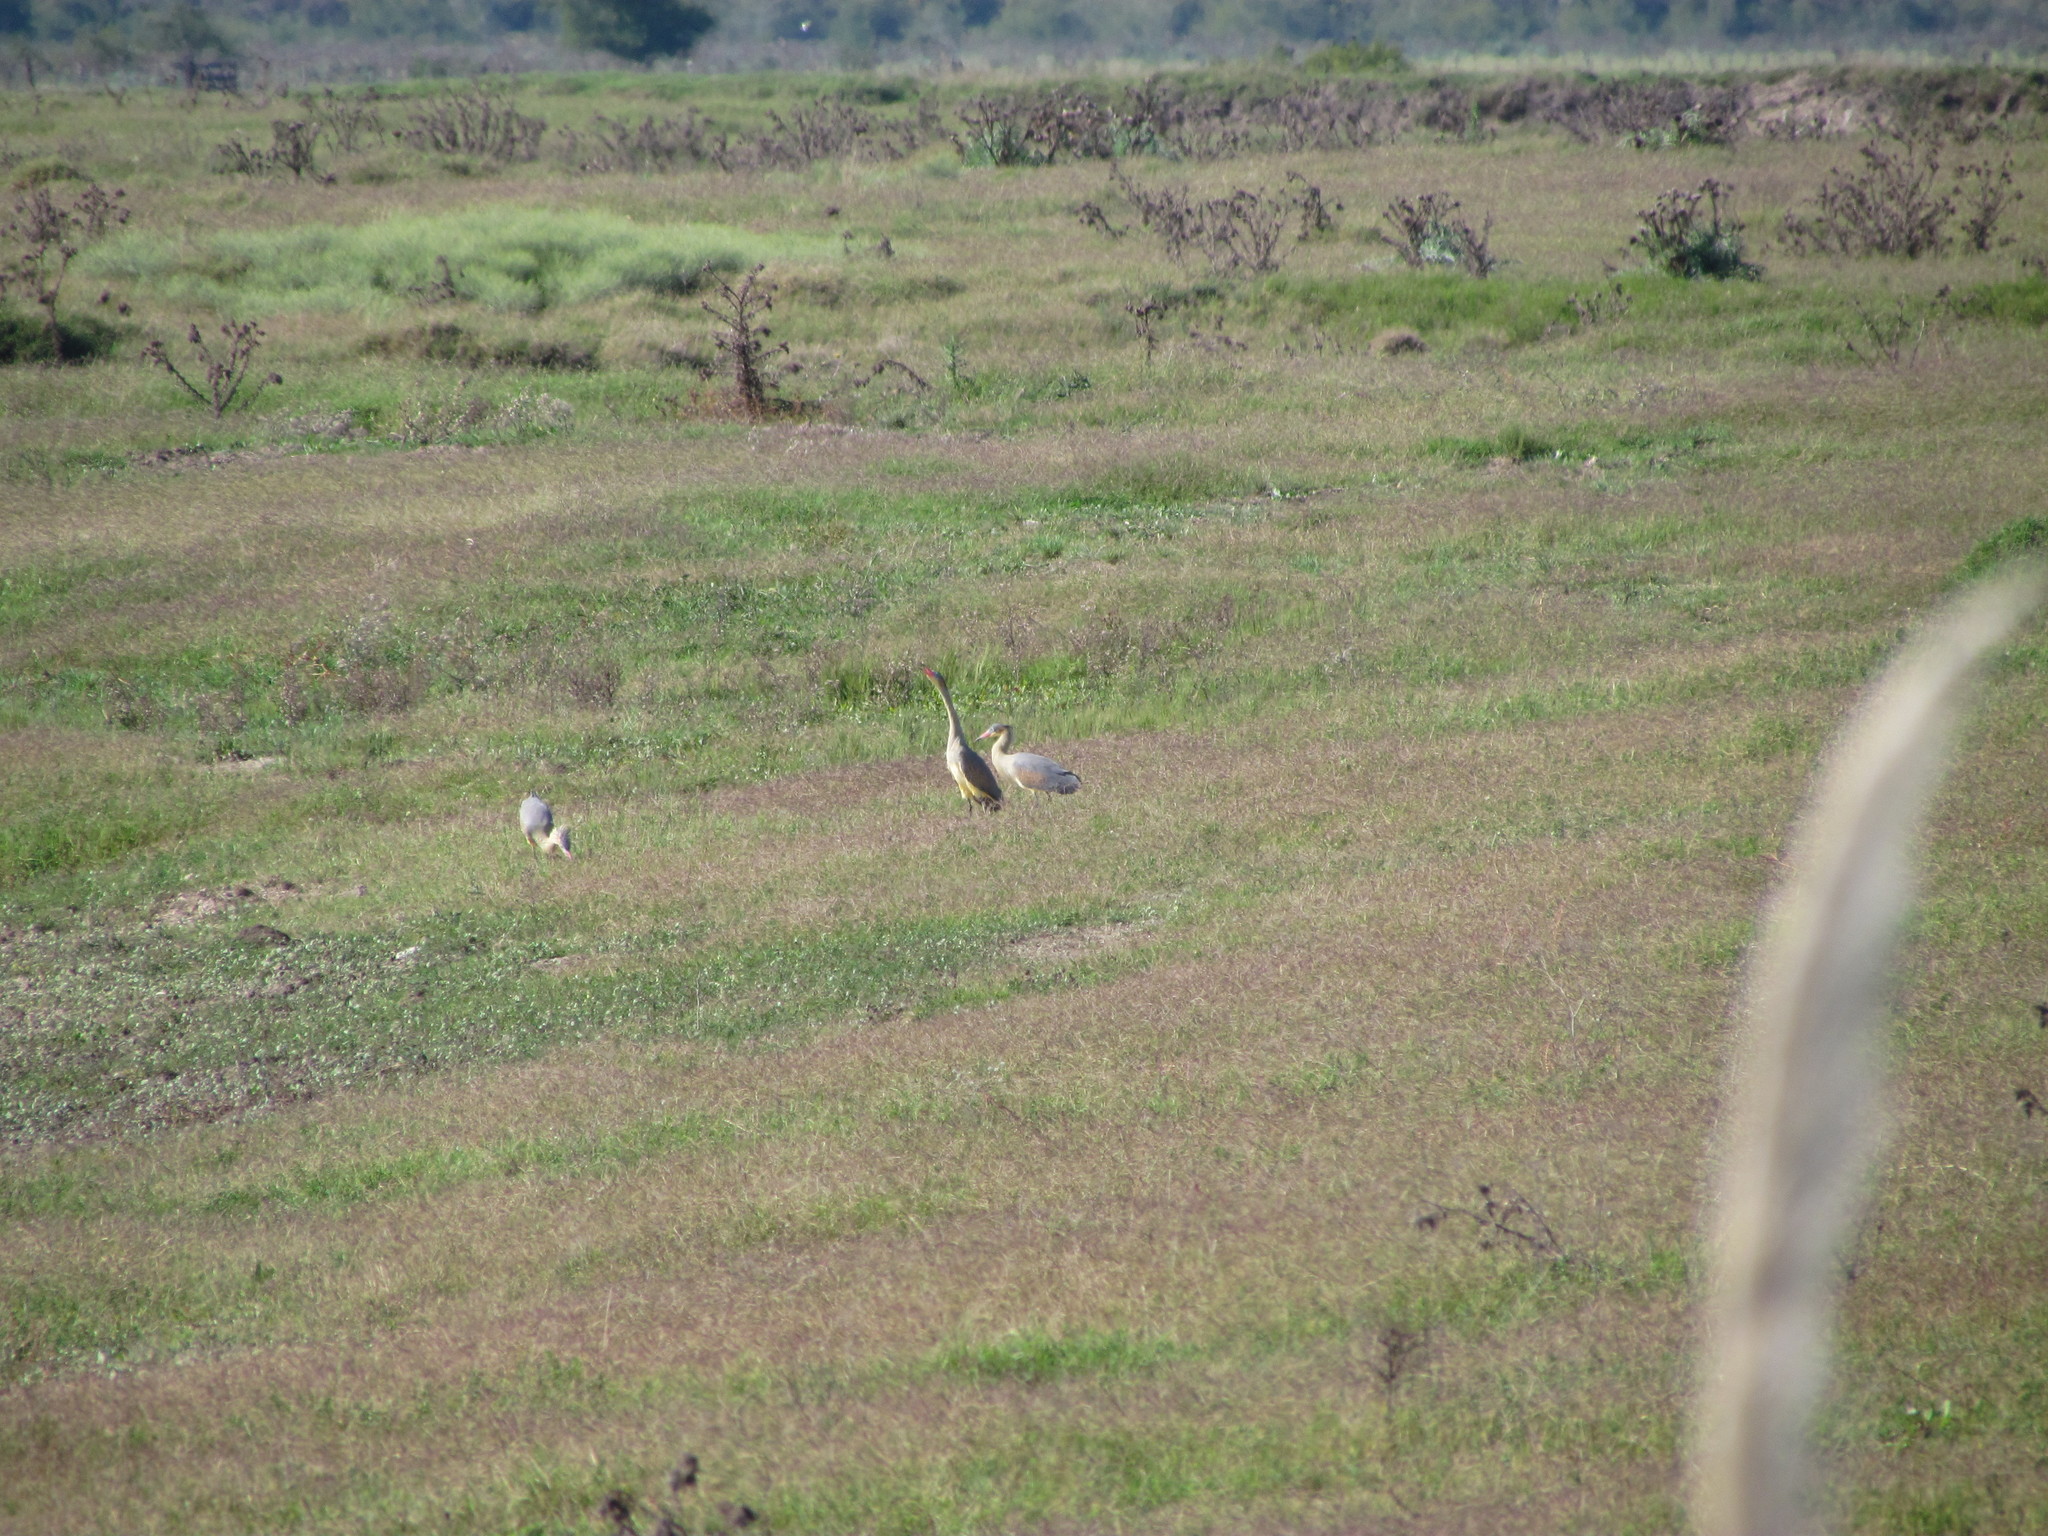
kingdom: Animalia
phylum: Chordata
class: Aves
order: Pelecaniformes
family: Ardeidae
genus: Syrigma
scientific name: Syrigma sibilatrix
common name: Whistling heron
